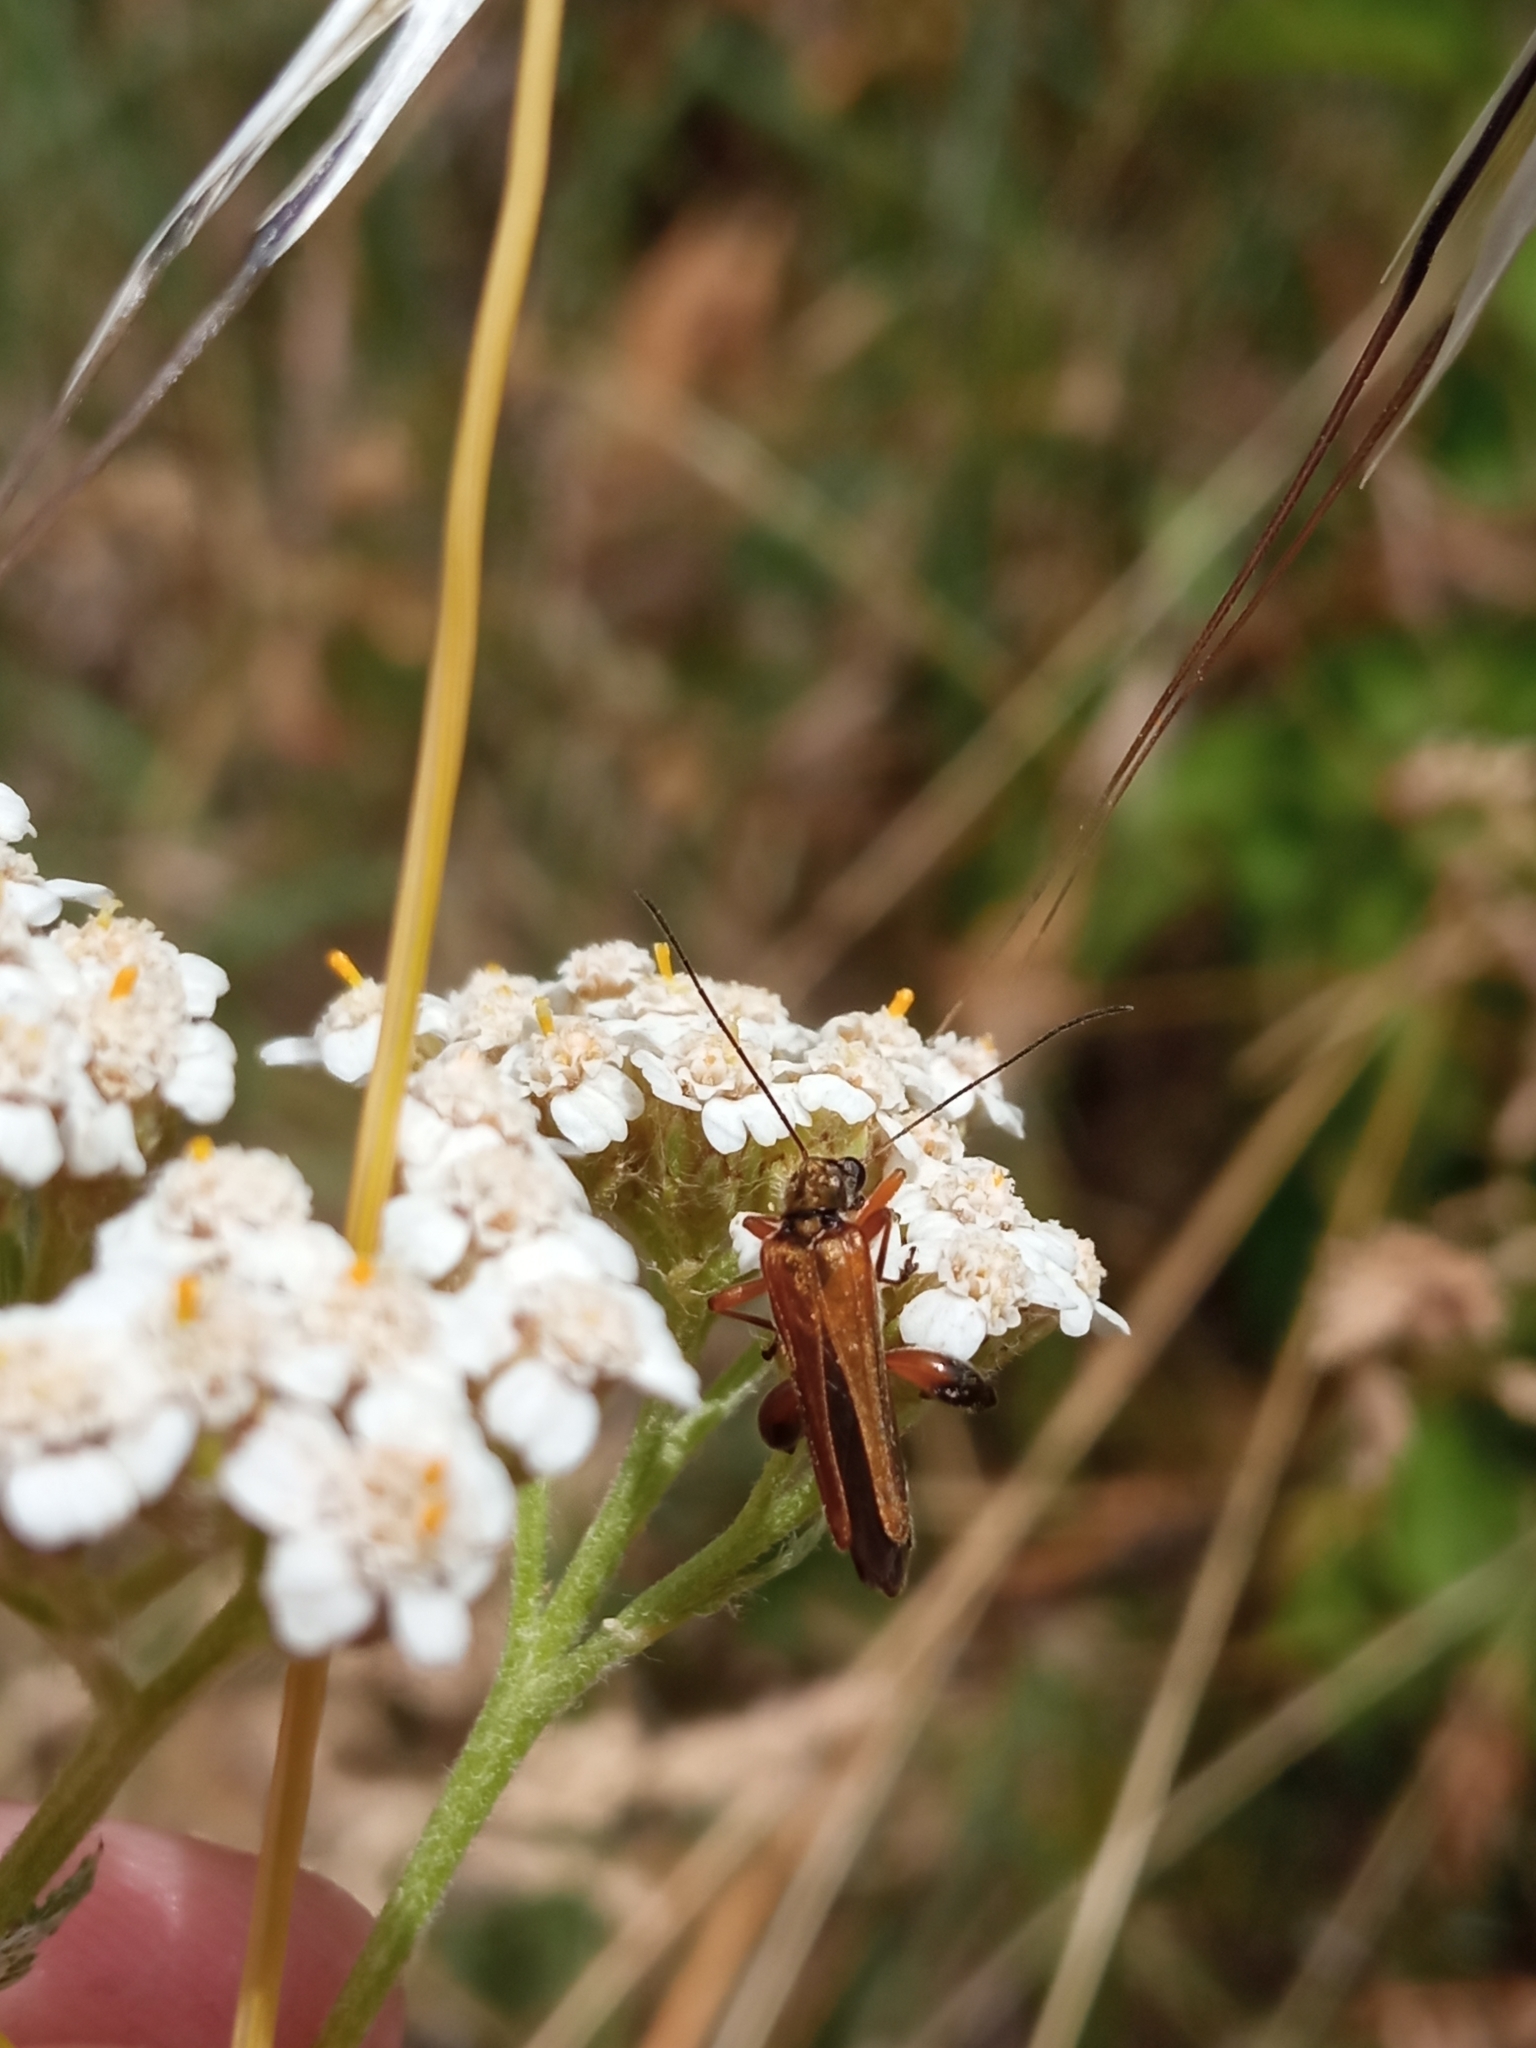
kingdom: Animalia
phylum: Arthropoda
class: Insecta
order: Coleoptera
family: Oedemeridae
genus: Oedemera
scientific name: Oedemera podagrariae
